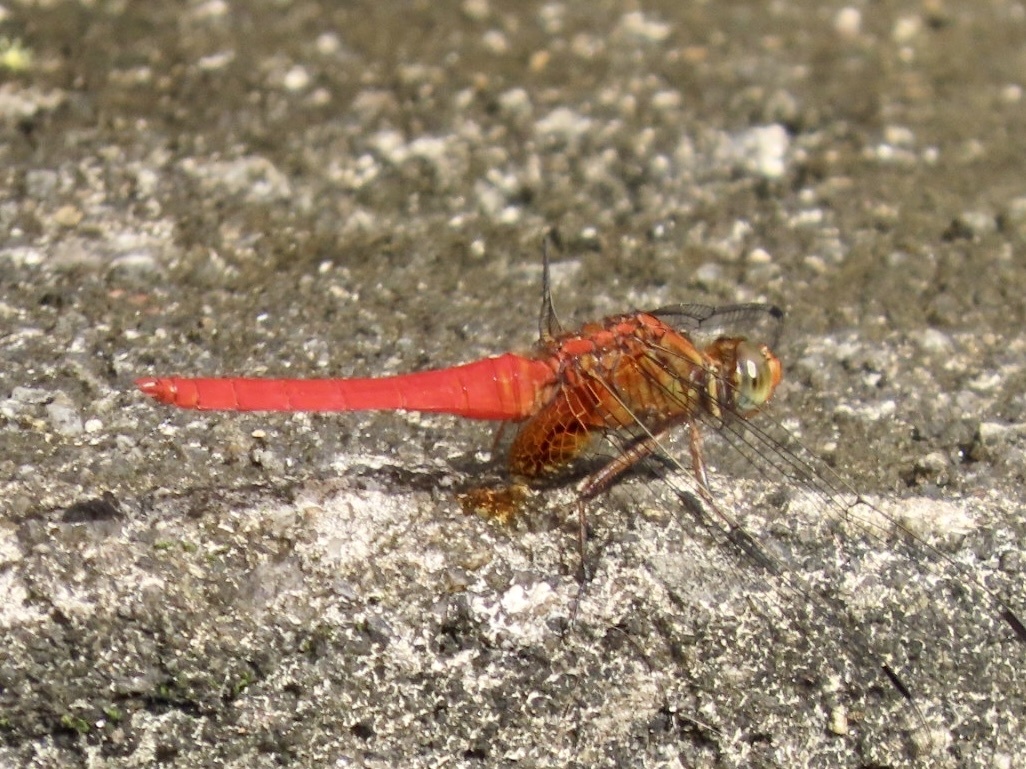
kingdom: Animalia
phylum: Arthropoda
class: Insecta
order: Odonata
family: Libellulidae
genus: Orthetrum
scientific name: Orthetrum testaceum
